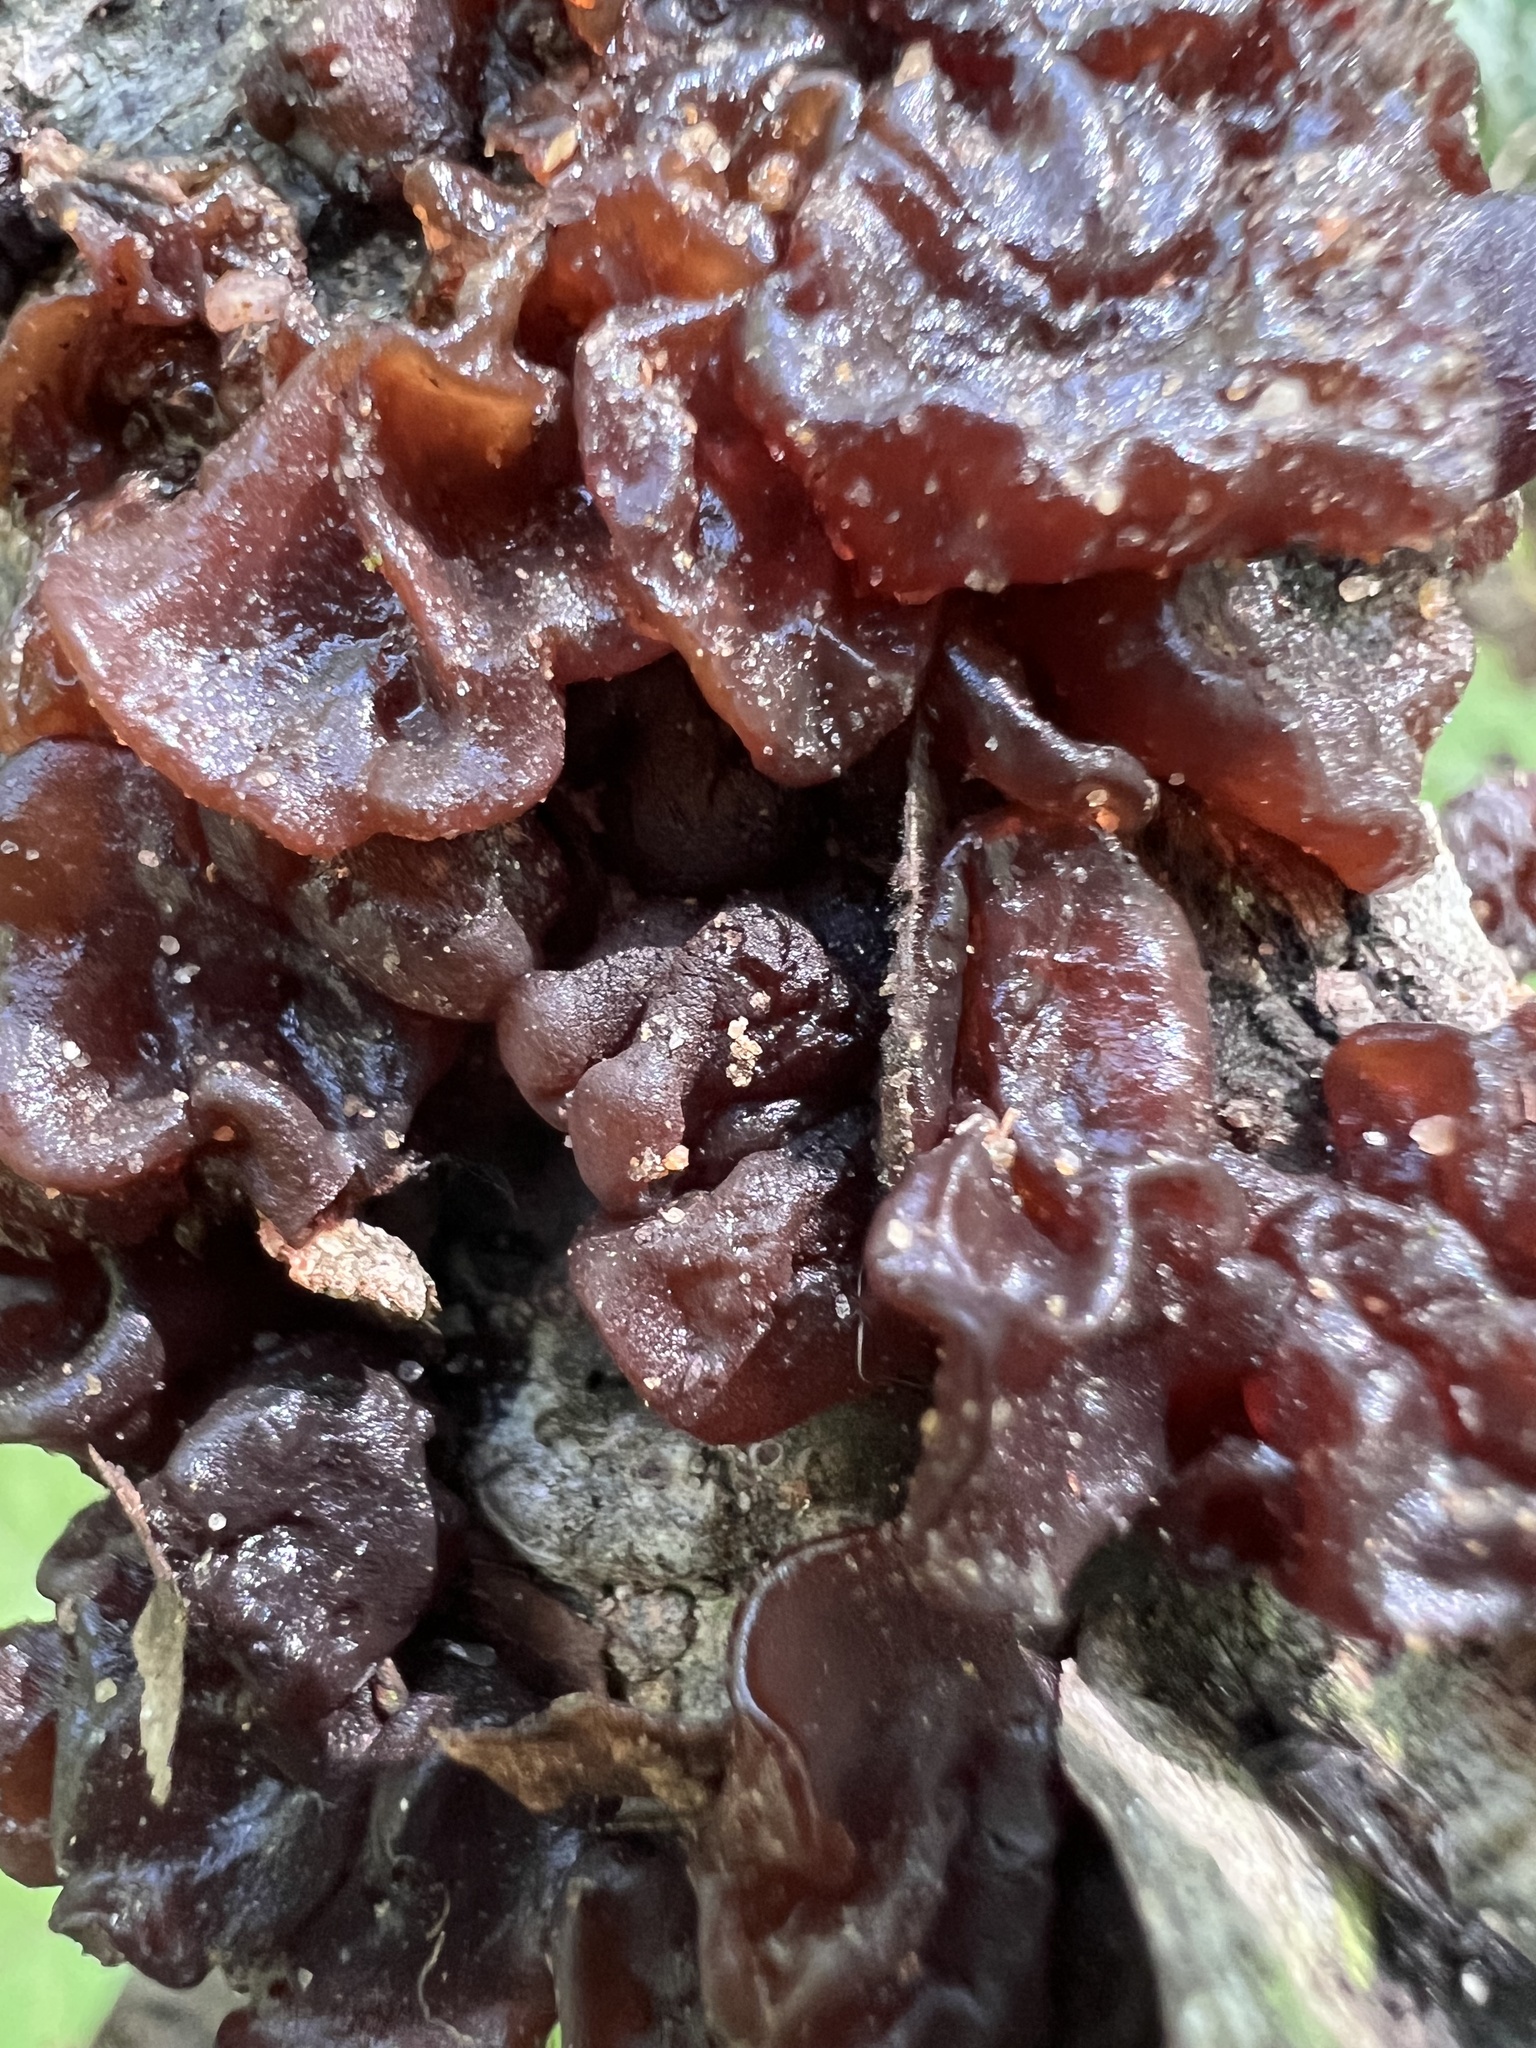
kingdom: Fungi
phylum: Basidiomycota
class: Agaricomycetes
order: Auriculariales
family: Auriculariaceae
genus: Exidia
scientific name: Exidia
